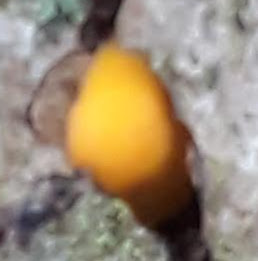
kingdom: Fungi
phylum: Basidiomycota
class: Dacrymycetes
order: Dacrymycetales
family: Dacrymycetaceae
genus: Dacrymyces
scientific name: Dacrymyces stillatus
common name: Common jelly spot
